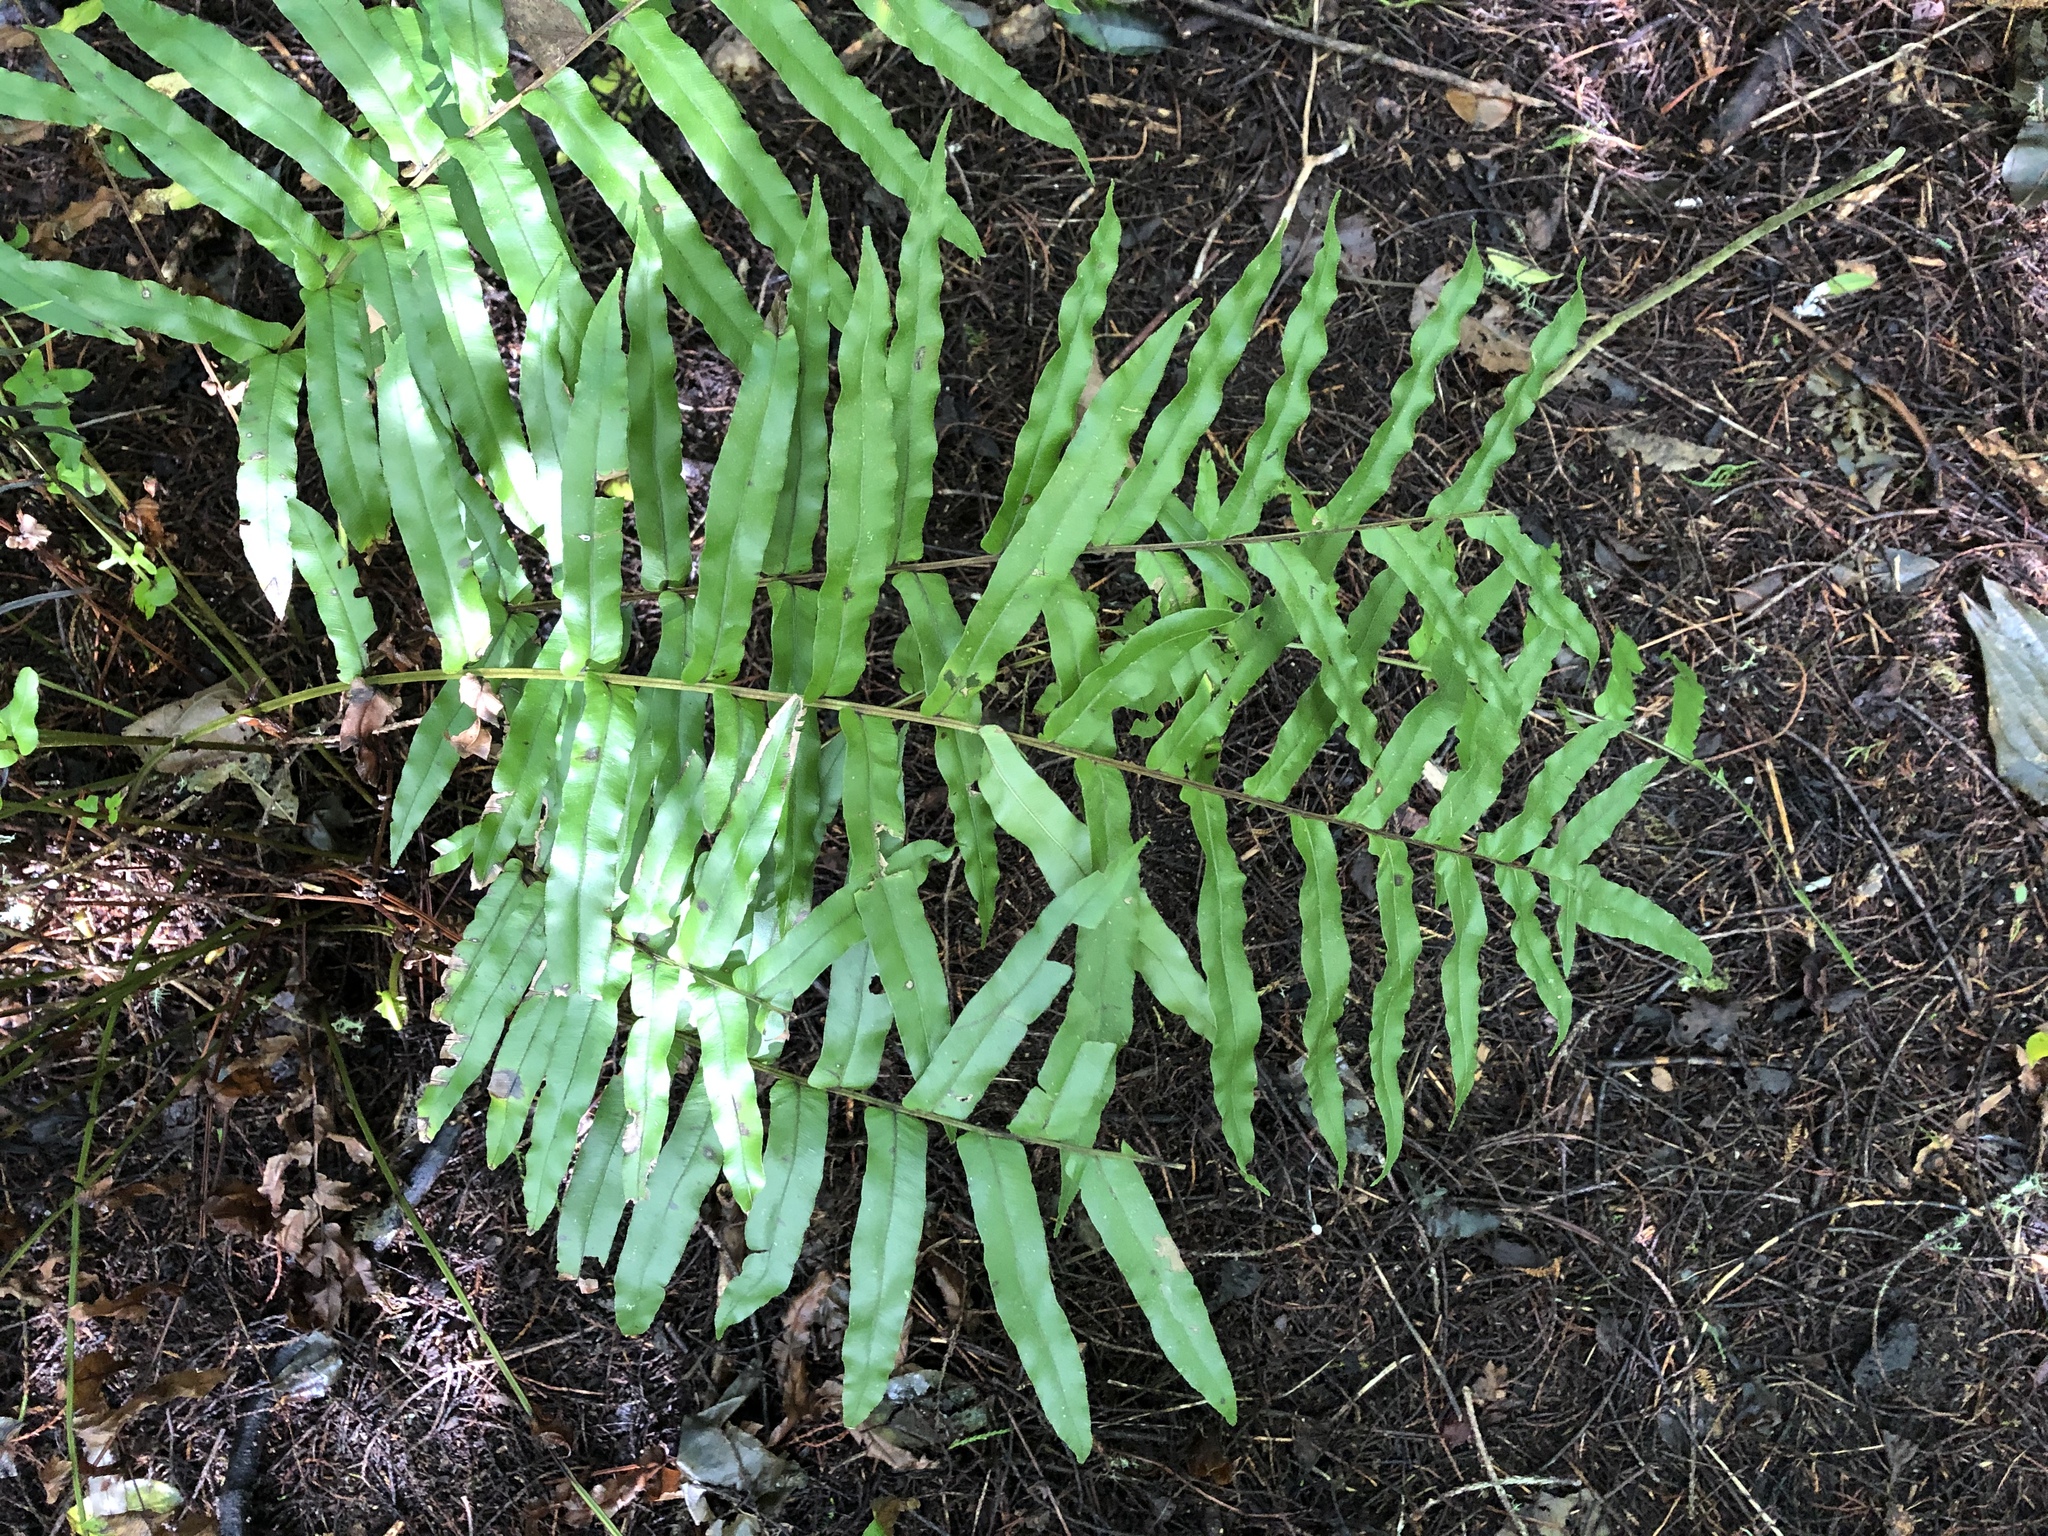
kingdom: Plantae
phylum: Tracheophyta
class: Polypodiopsida
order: Polypodiales
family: Blechnaceae
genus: Parablechnum
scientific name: Parablechnum minus
